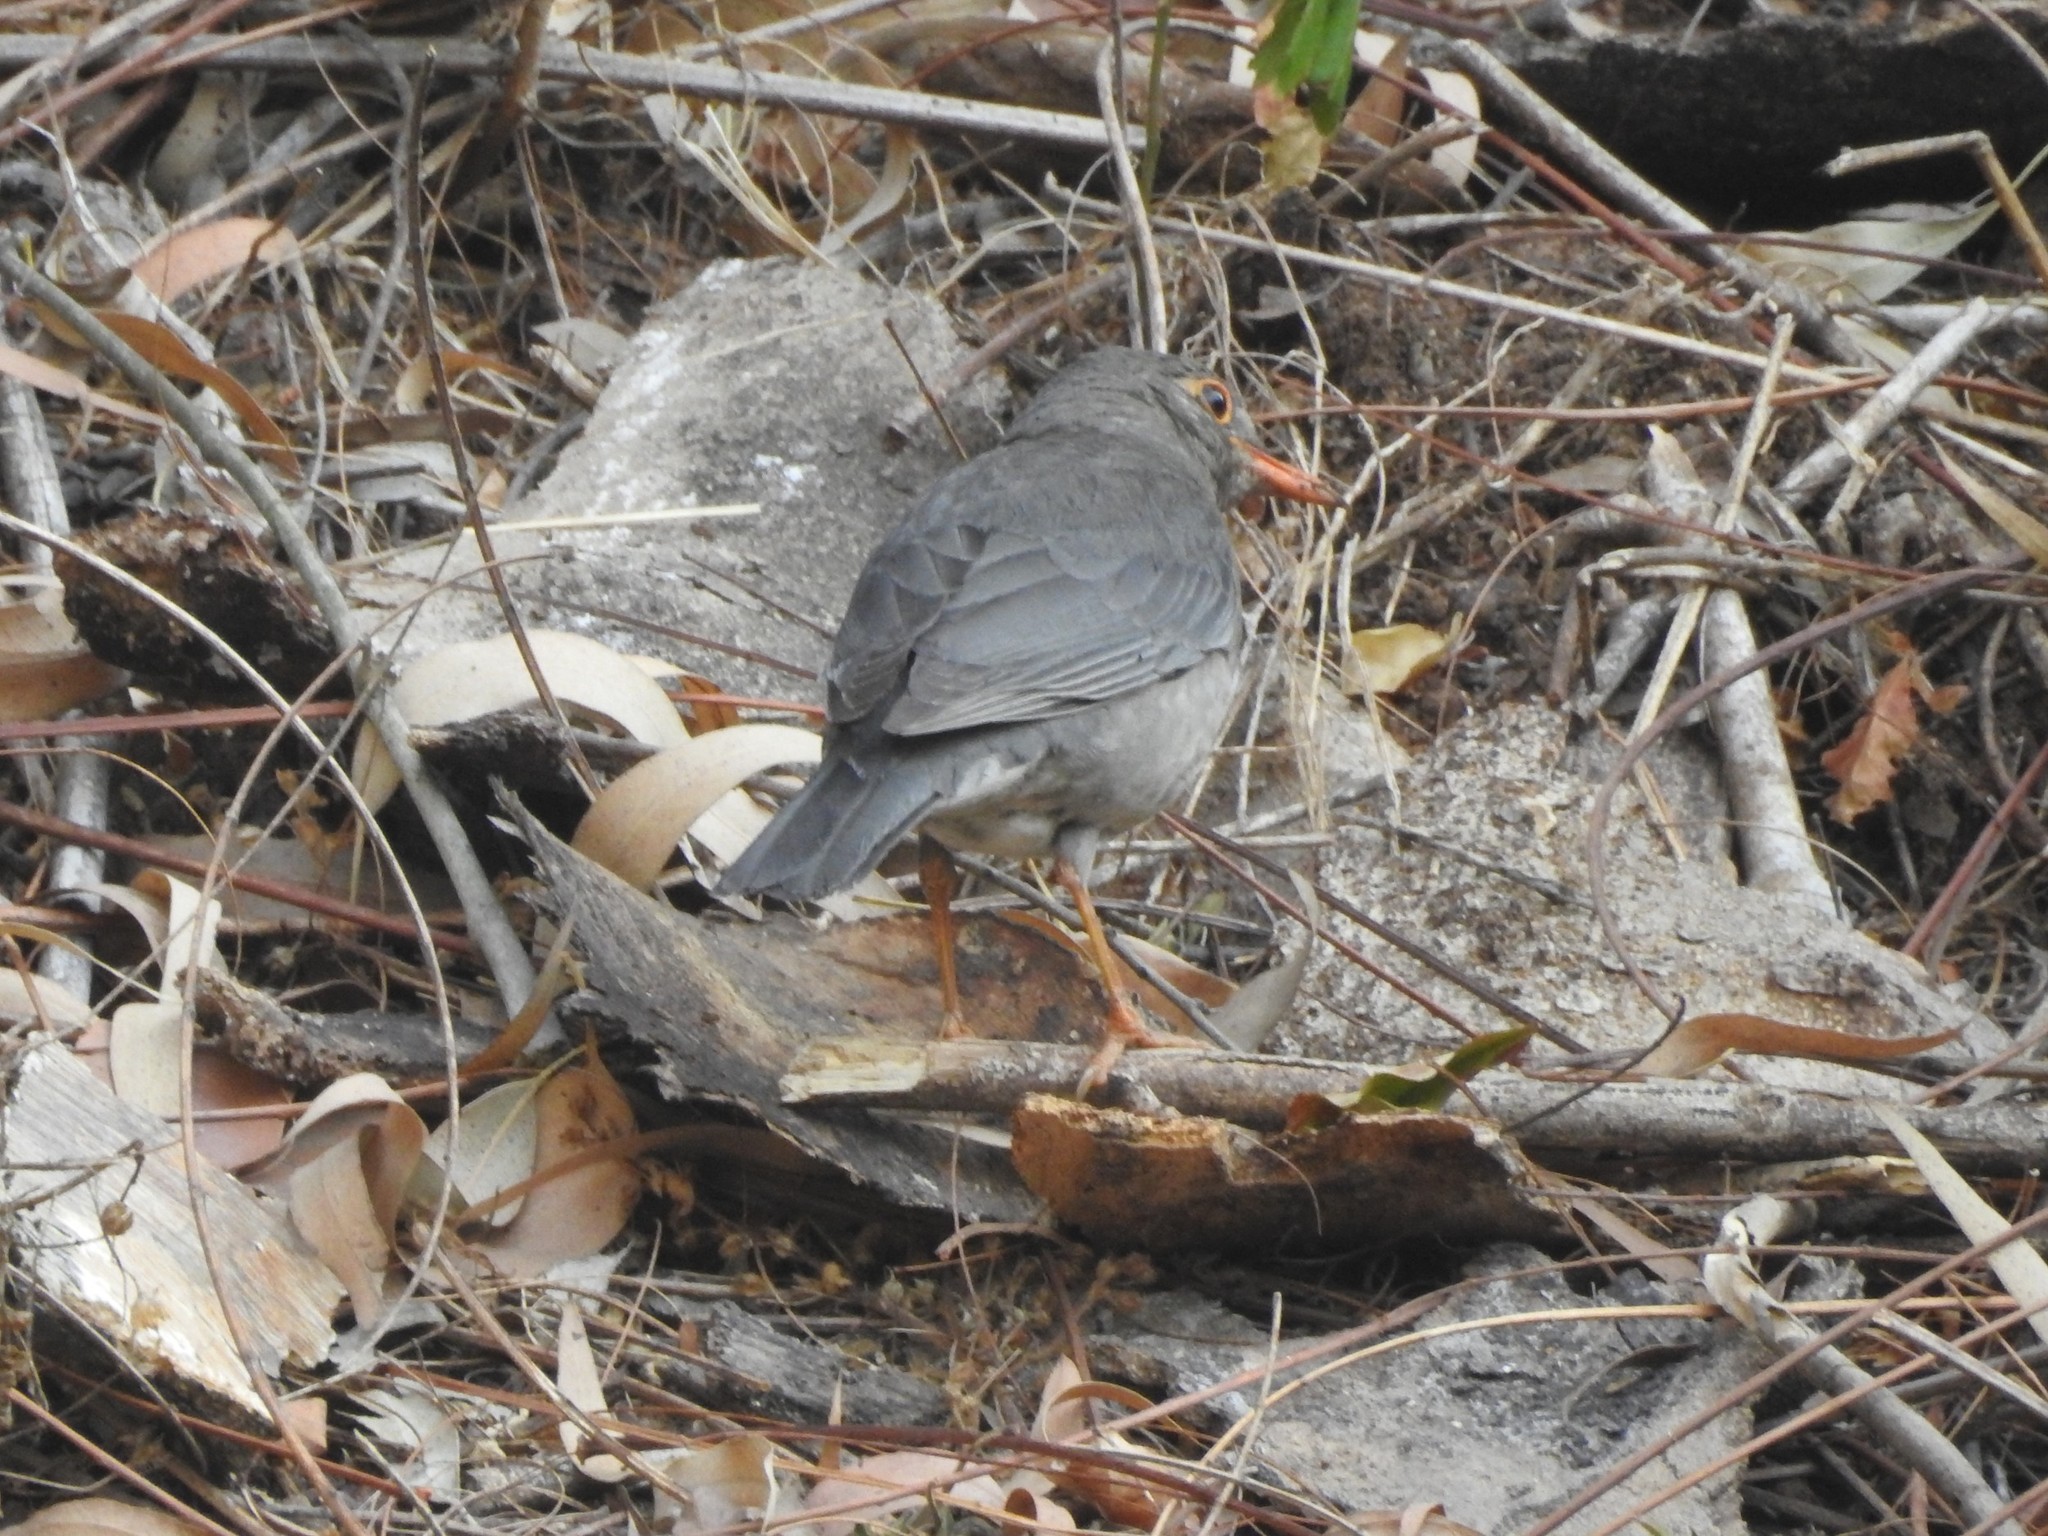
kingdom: Animalia
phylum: Chordata
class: Aves
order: Passeriformes
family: Turdidae
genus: Turdus
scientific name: Turdus simillimus
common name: Indian blackbird
